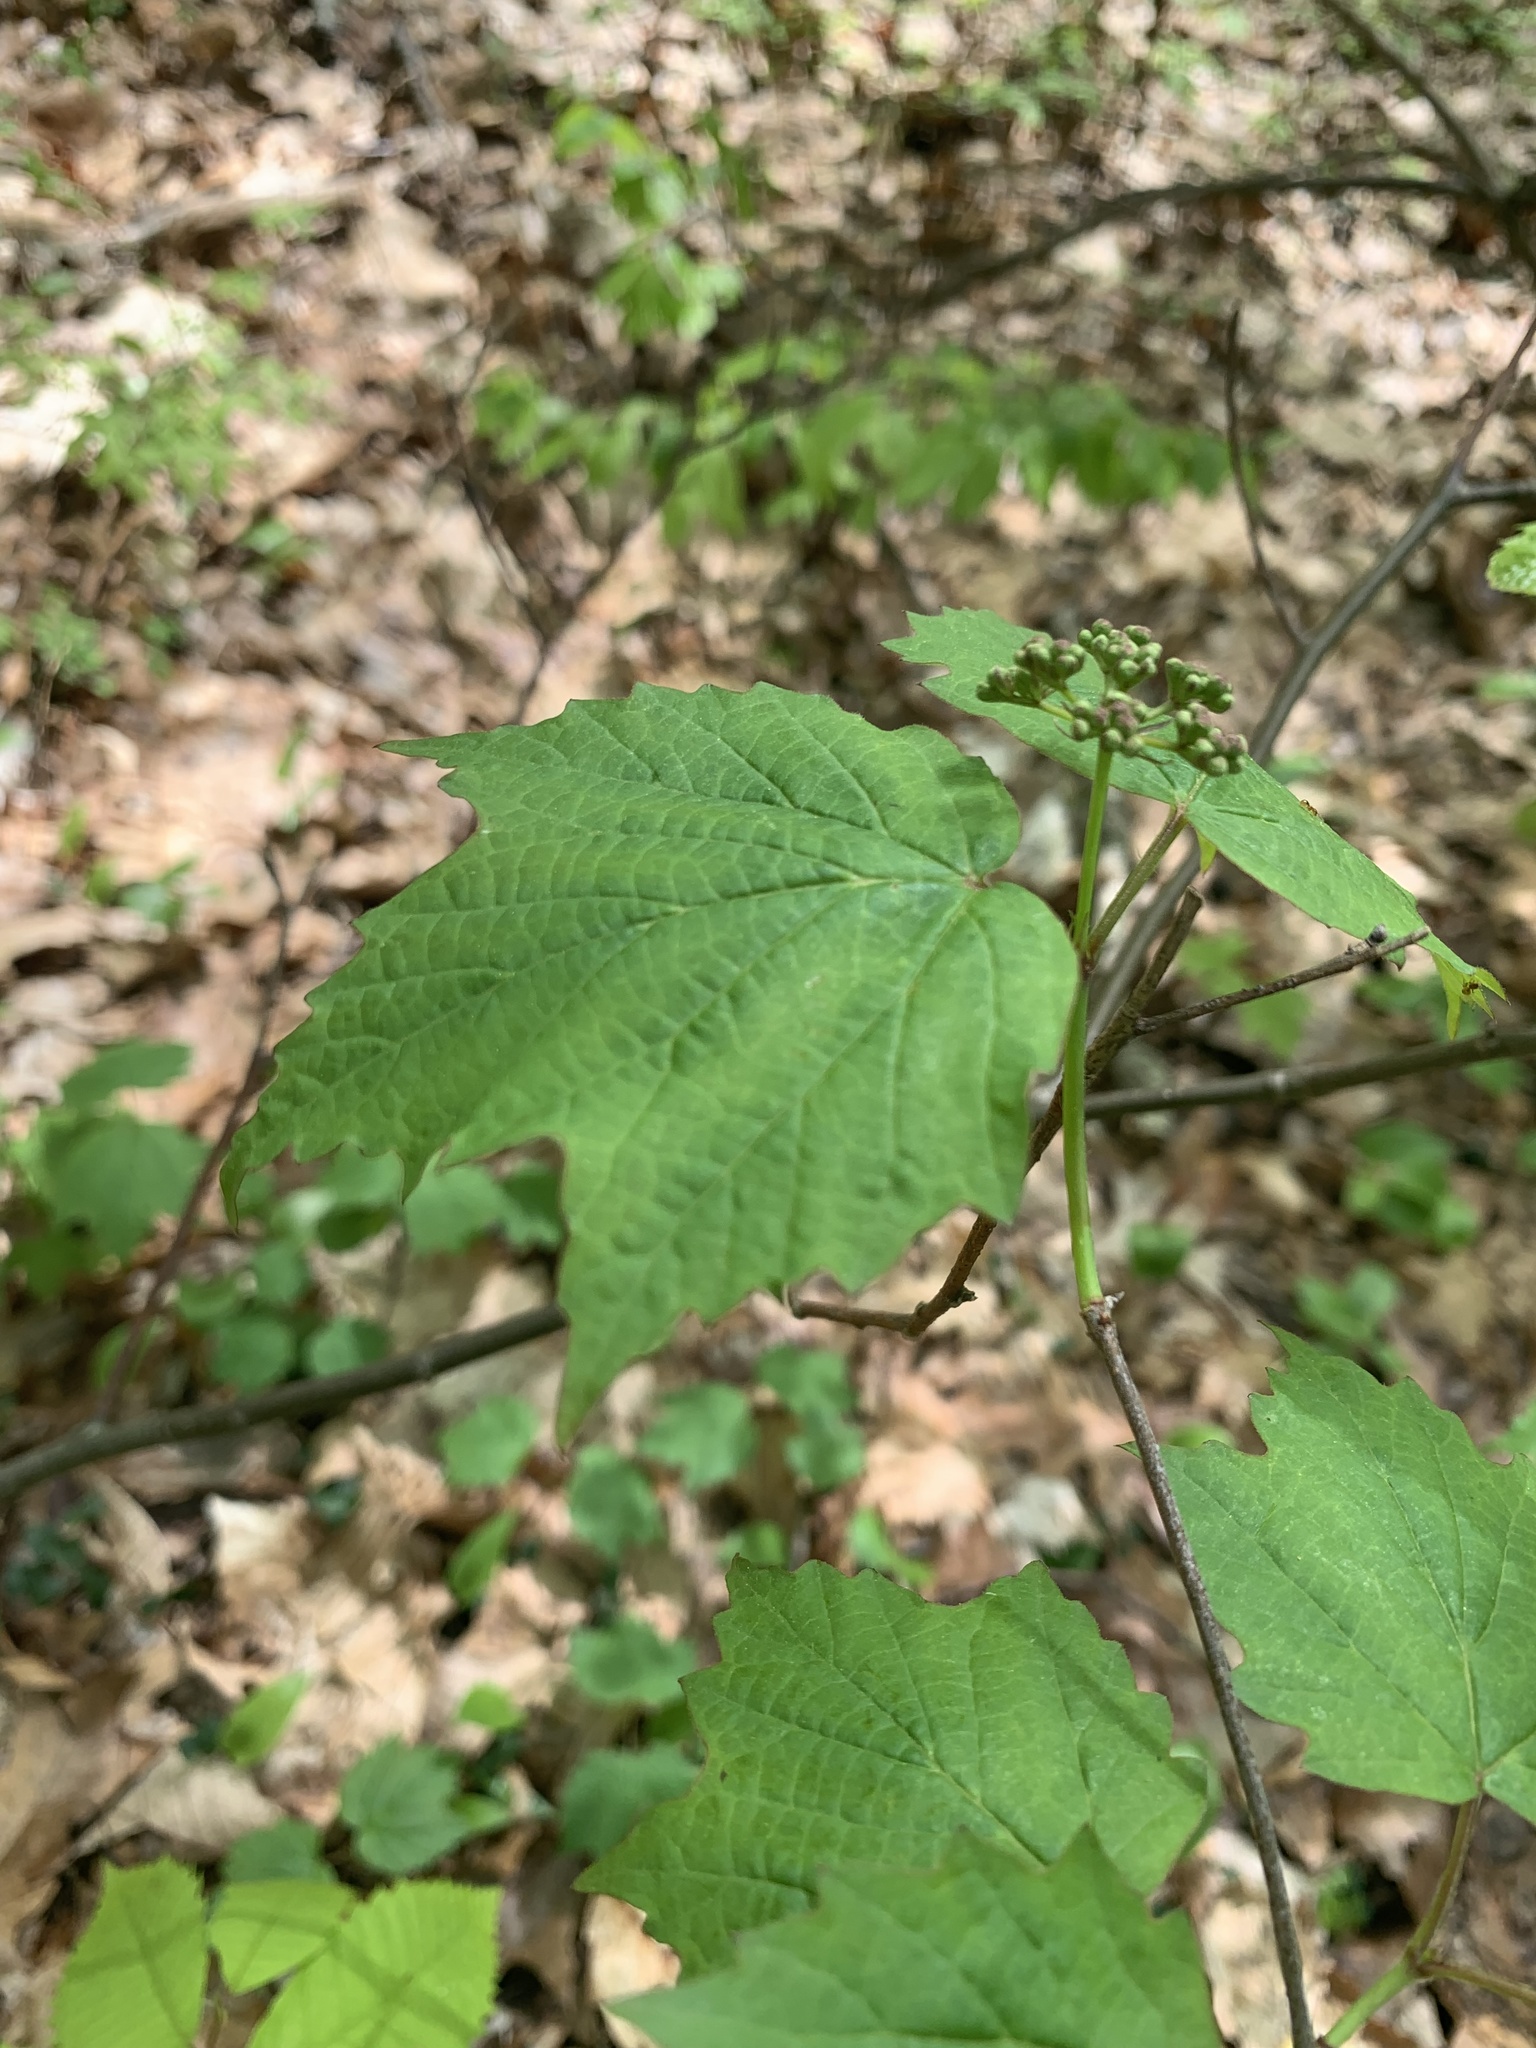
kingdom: Plantae
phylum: Tracheophyta
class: Magnoliopsida
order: Dipsacales
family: Viburnaceae
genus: Viburnum
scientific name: Viburnum acerifolium
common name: Dockmackie
